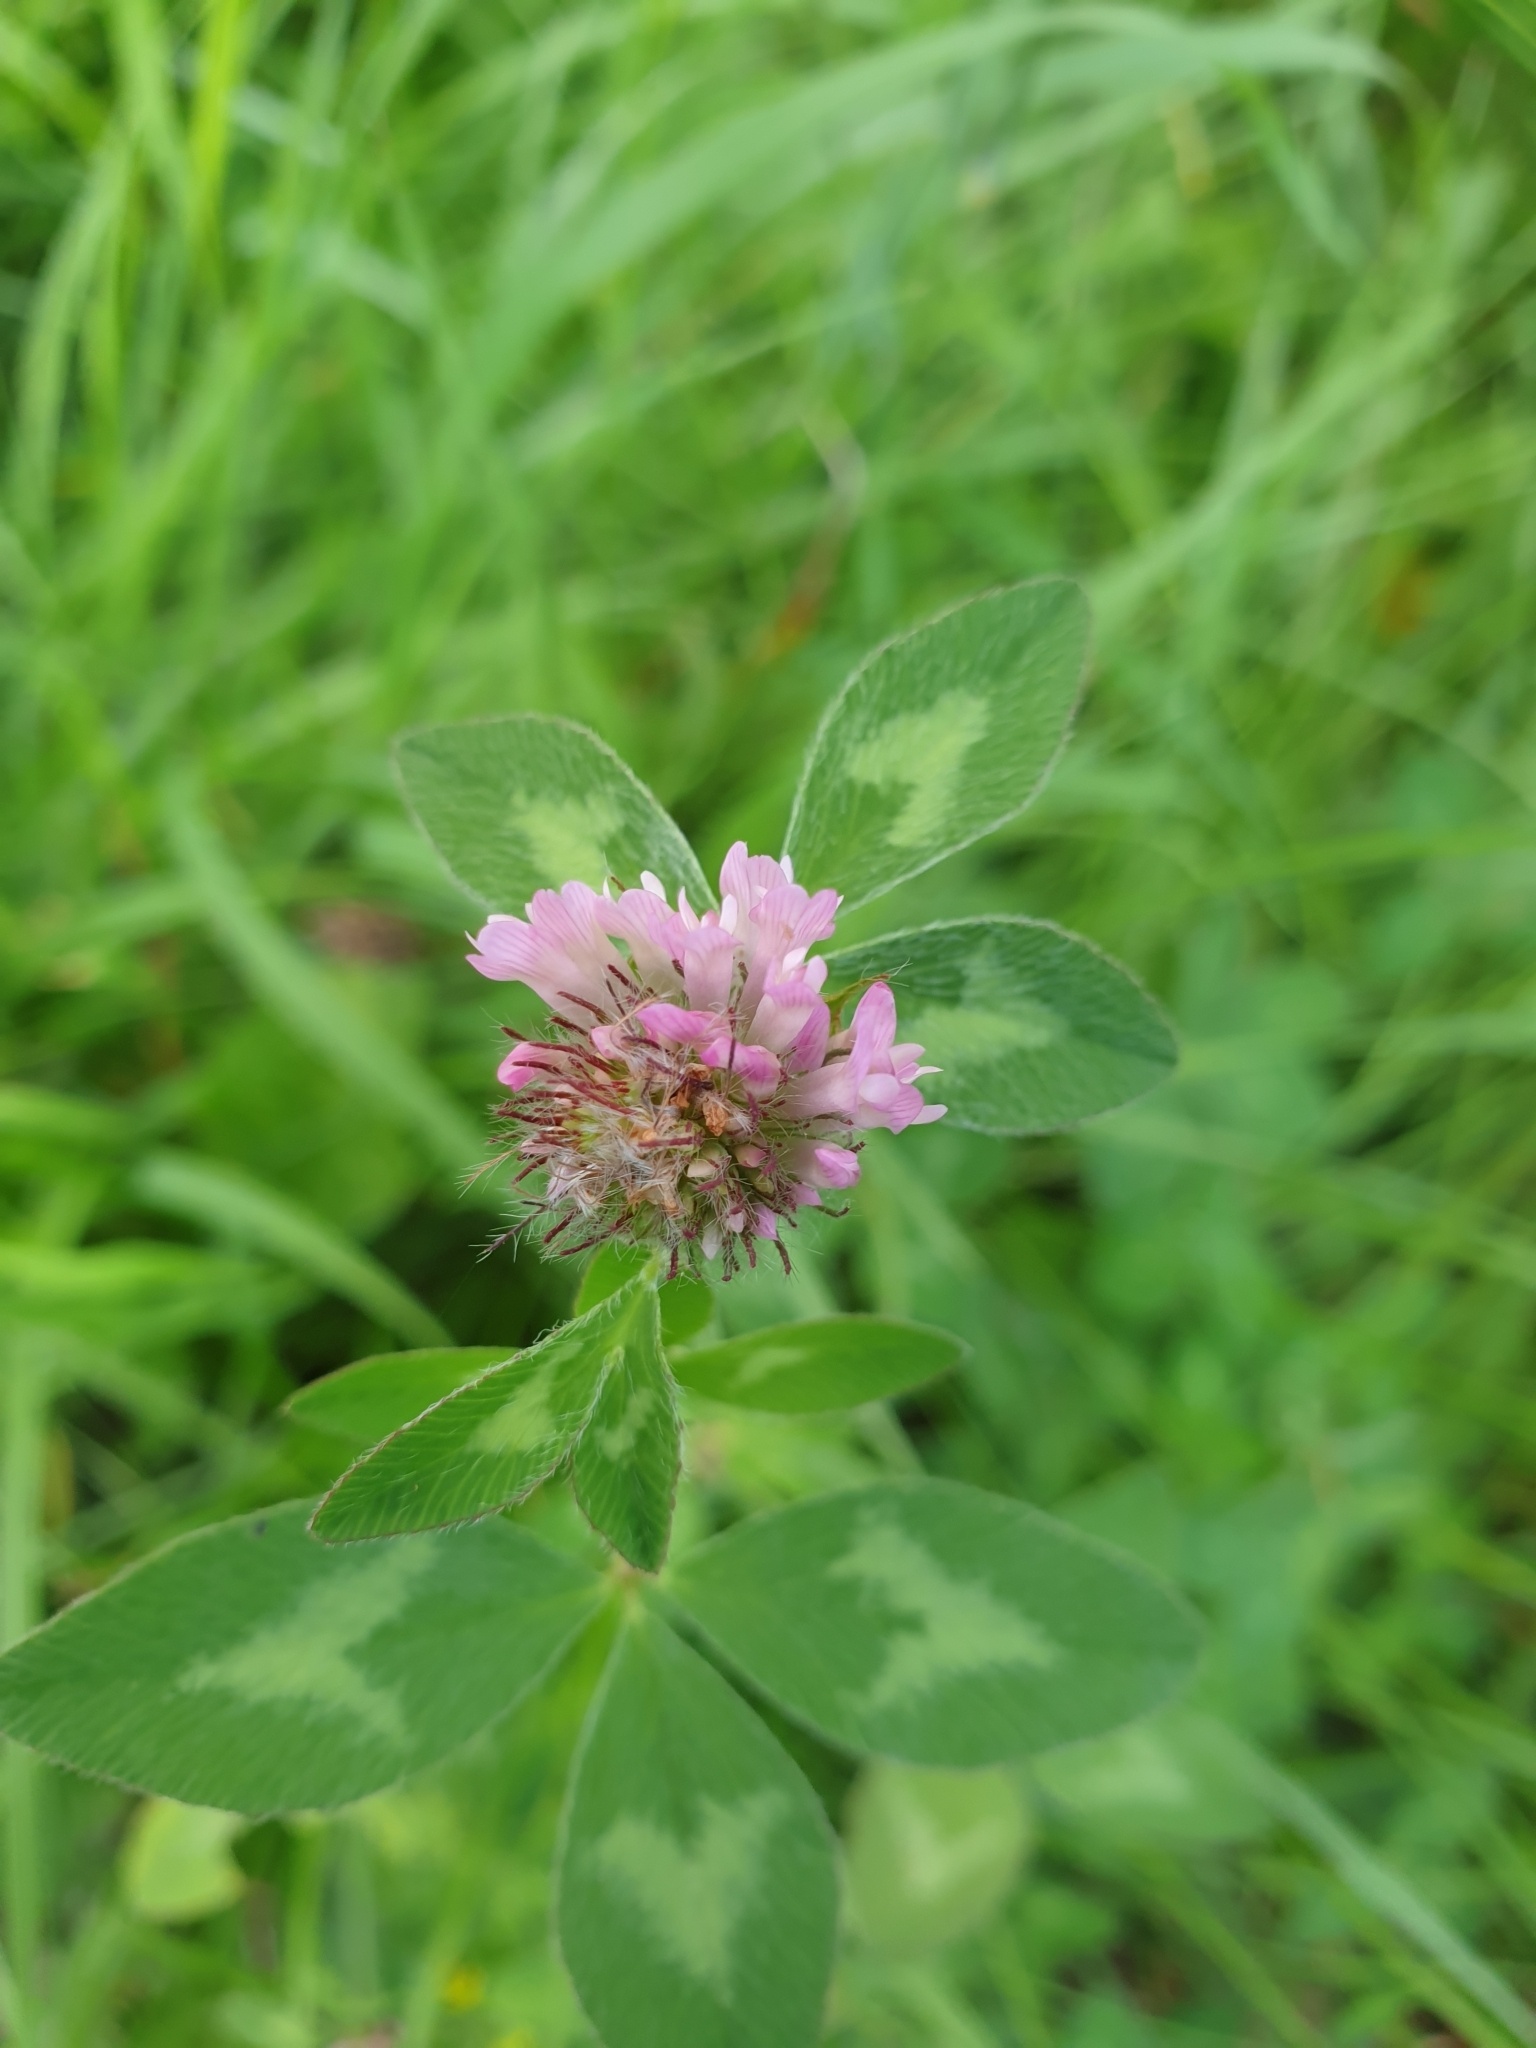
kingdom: Plantae
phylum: Tracheophyta
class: Magnoliopsida
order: Fabales
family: Fabaceae
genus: Trifolium
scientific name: Trifolium pratense
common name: Red clover
